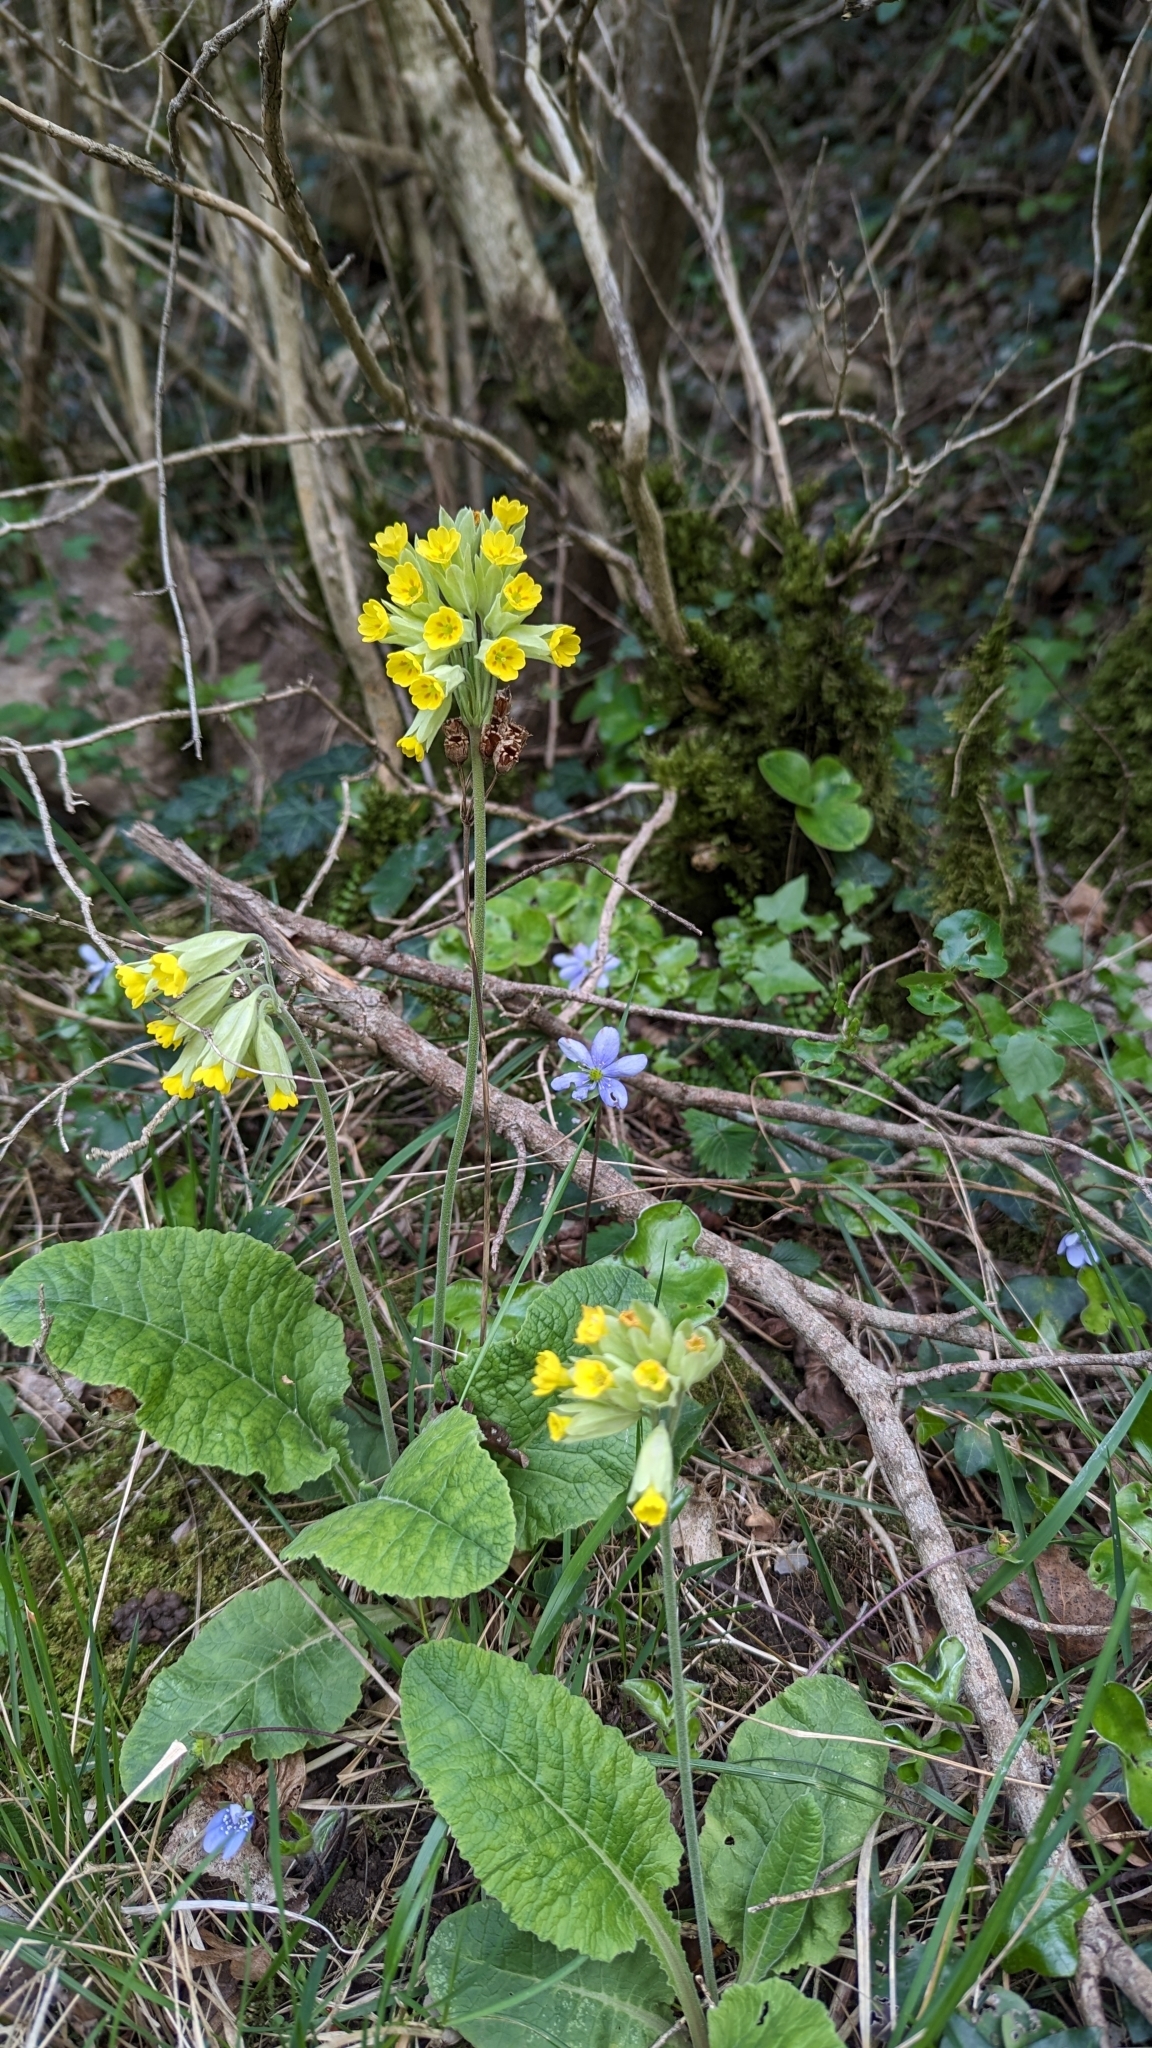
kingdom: Plantae
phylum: Tracheophyta
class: Magnoliopsida
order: Ericales
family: Primulaceae
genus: Primula
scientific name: Primula veris
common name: Cowslip
